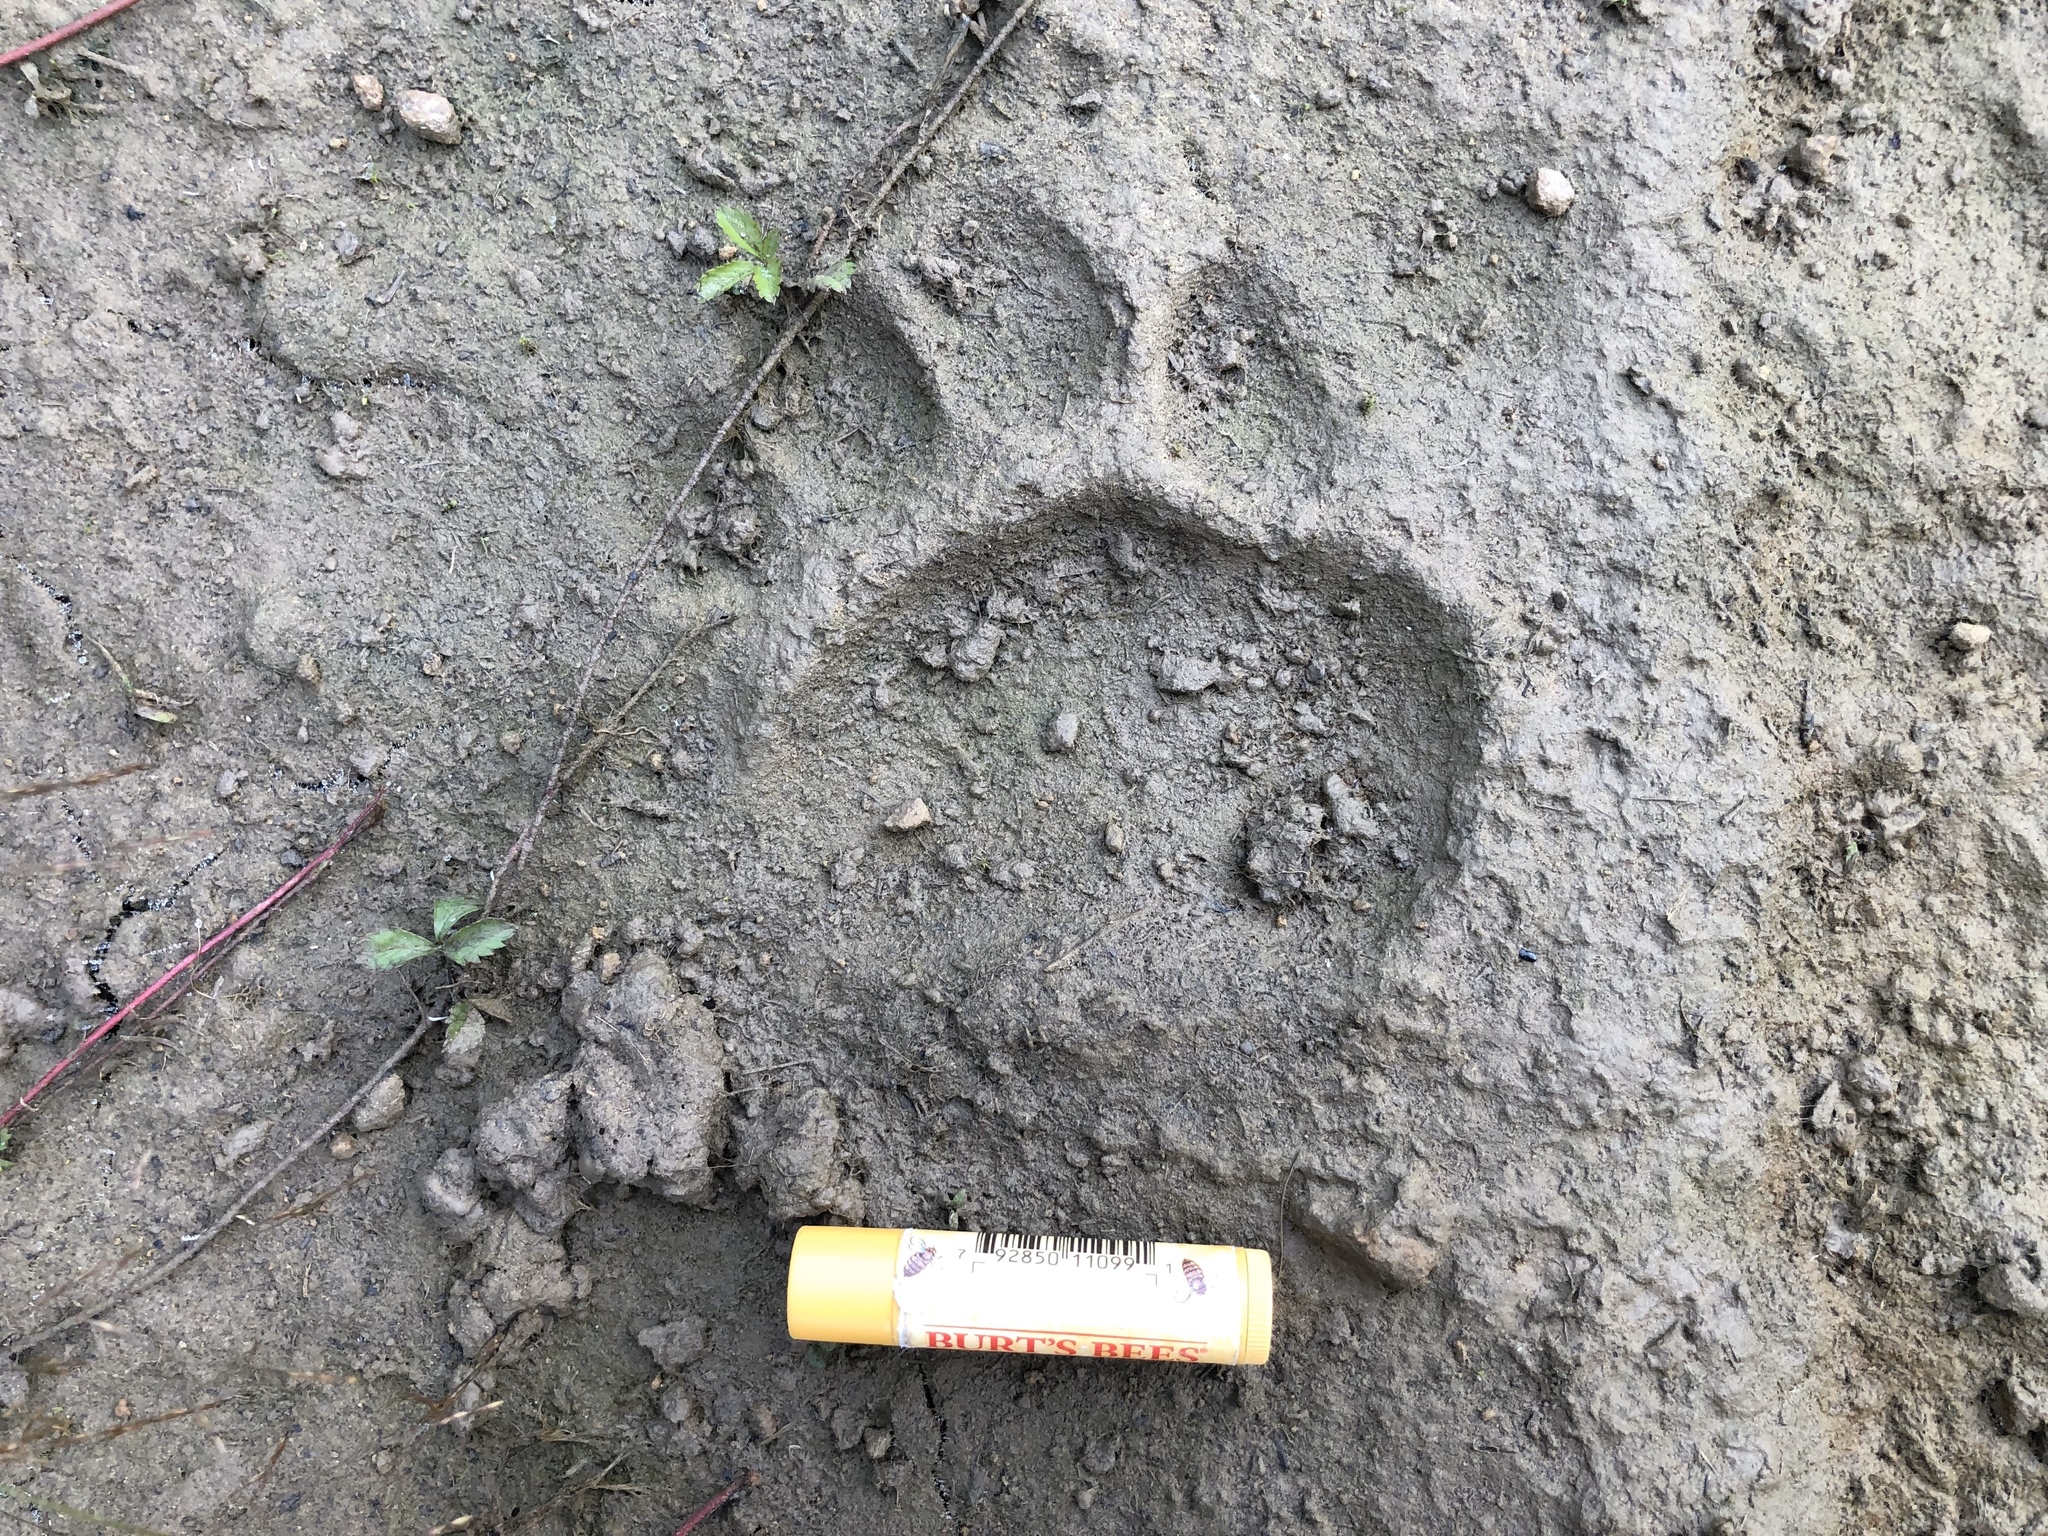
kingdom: Animalia
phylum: Chordata
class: Mammalia
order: Carnivora
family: Ursidae
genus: Ursus
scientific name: Ursus americanus
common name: American black bear
